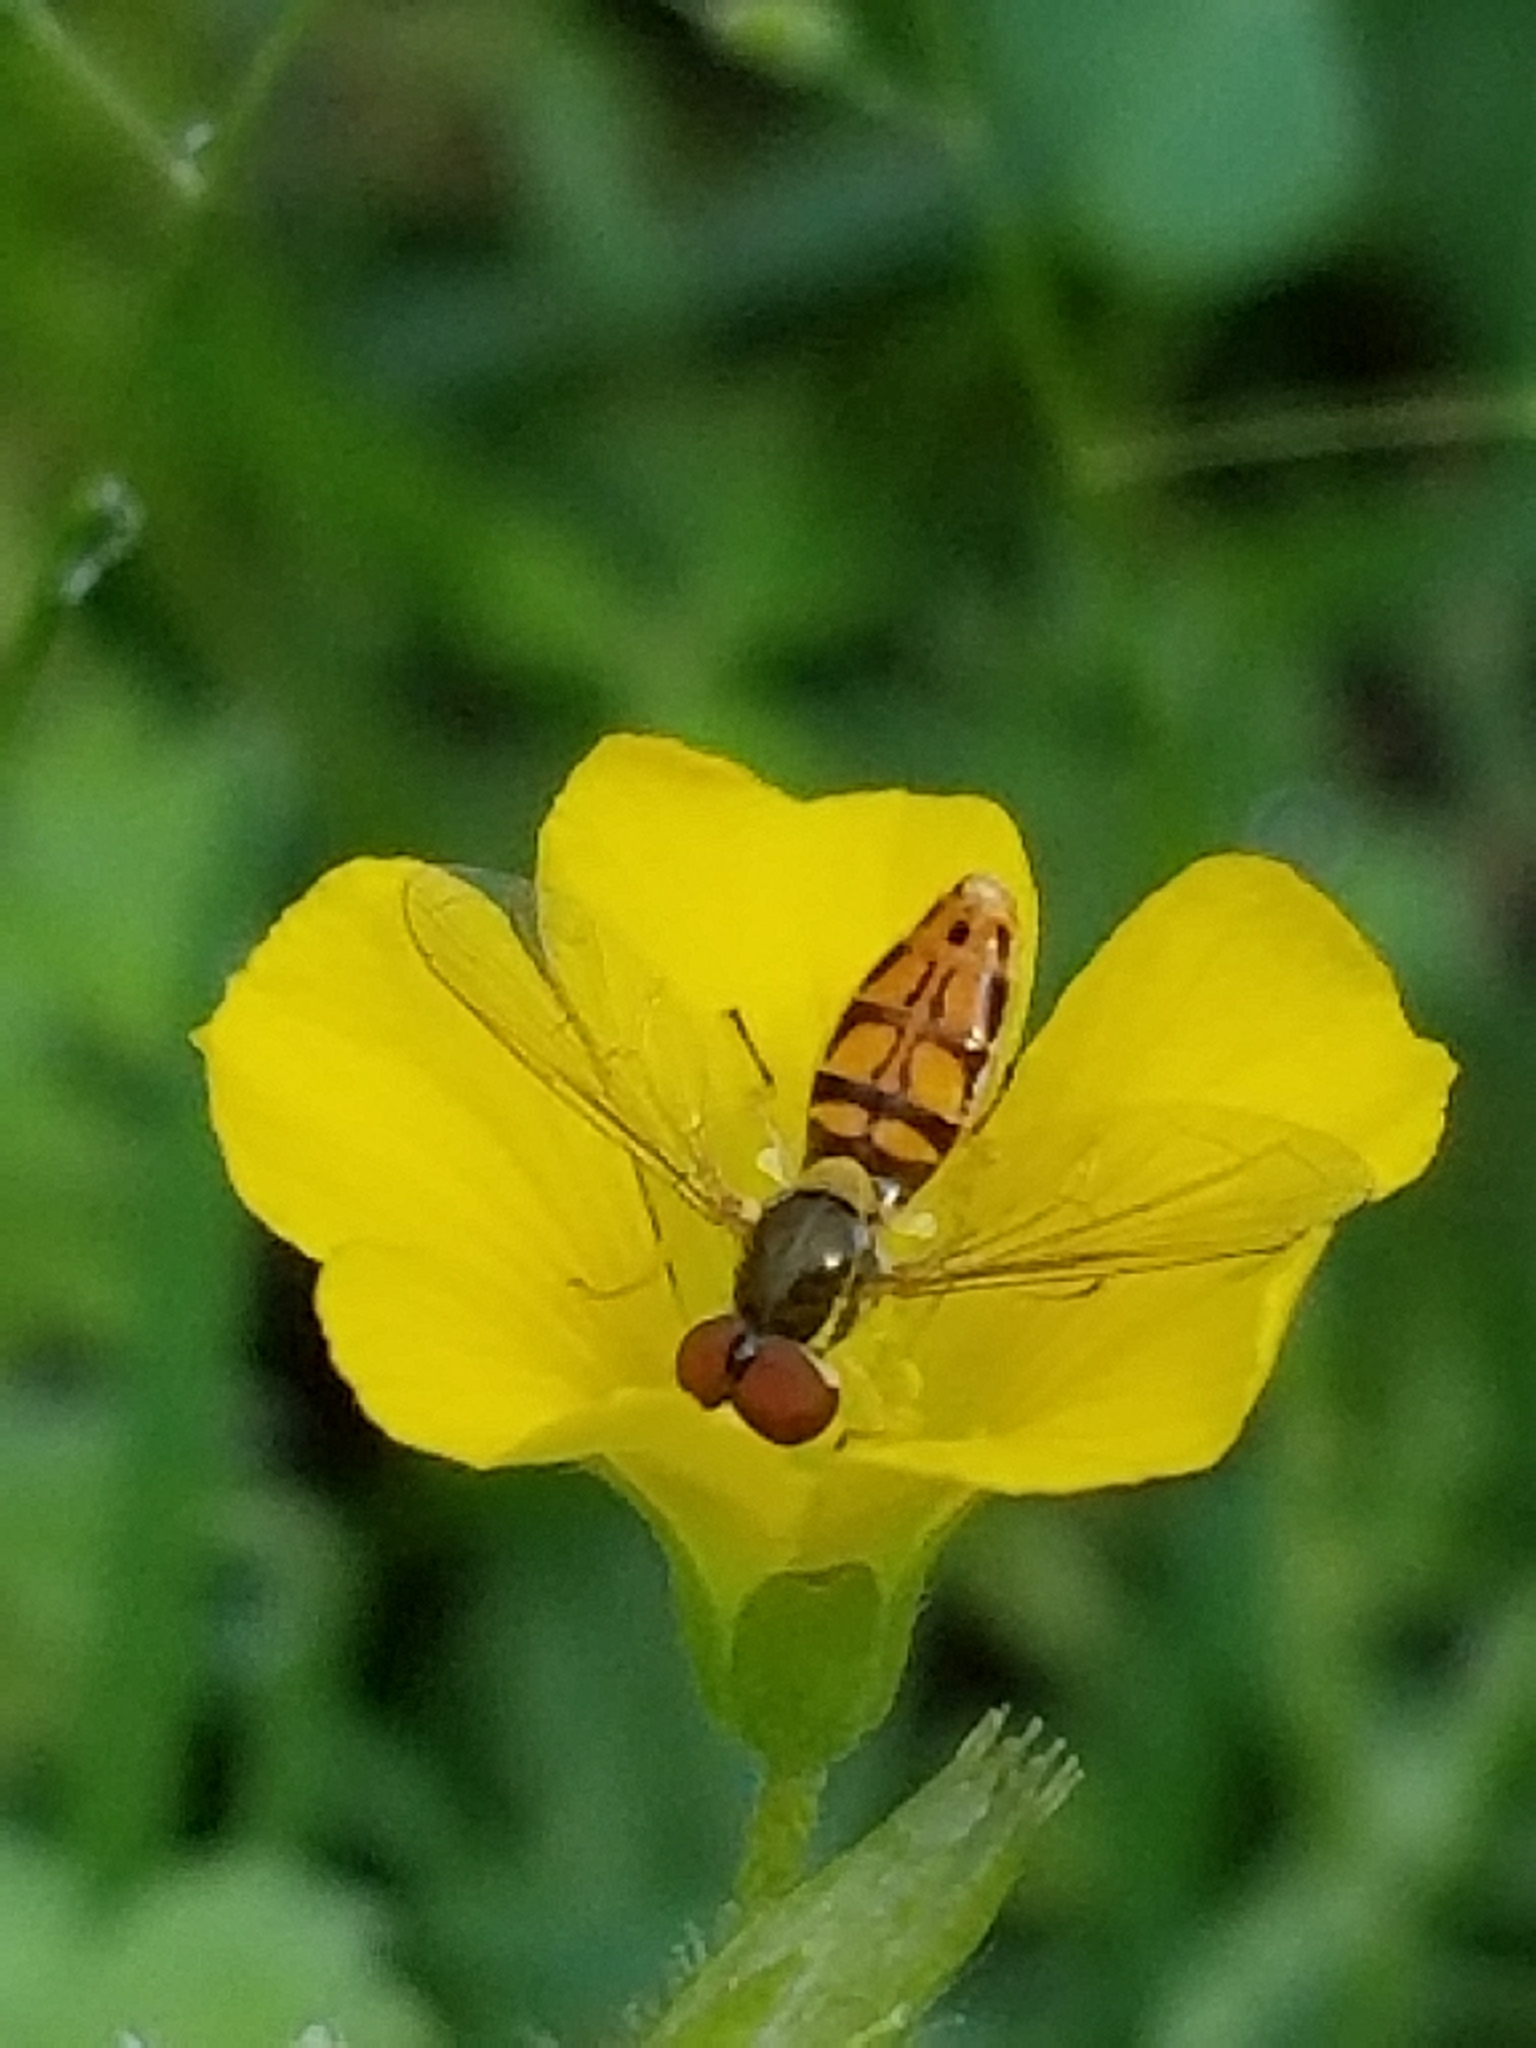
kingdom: Animalia
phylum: Arthropoda
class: Insecta
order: Diptera
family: Syrphidae
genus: Toxomerus
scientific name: Toxomerus marginatus
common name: Syrphid fly
